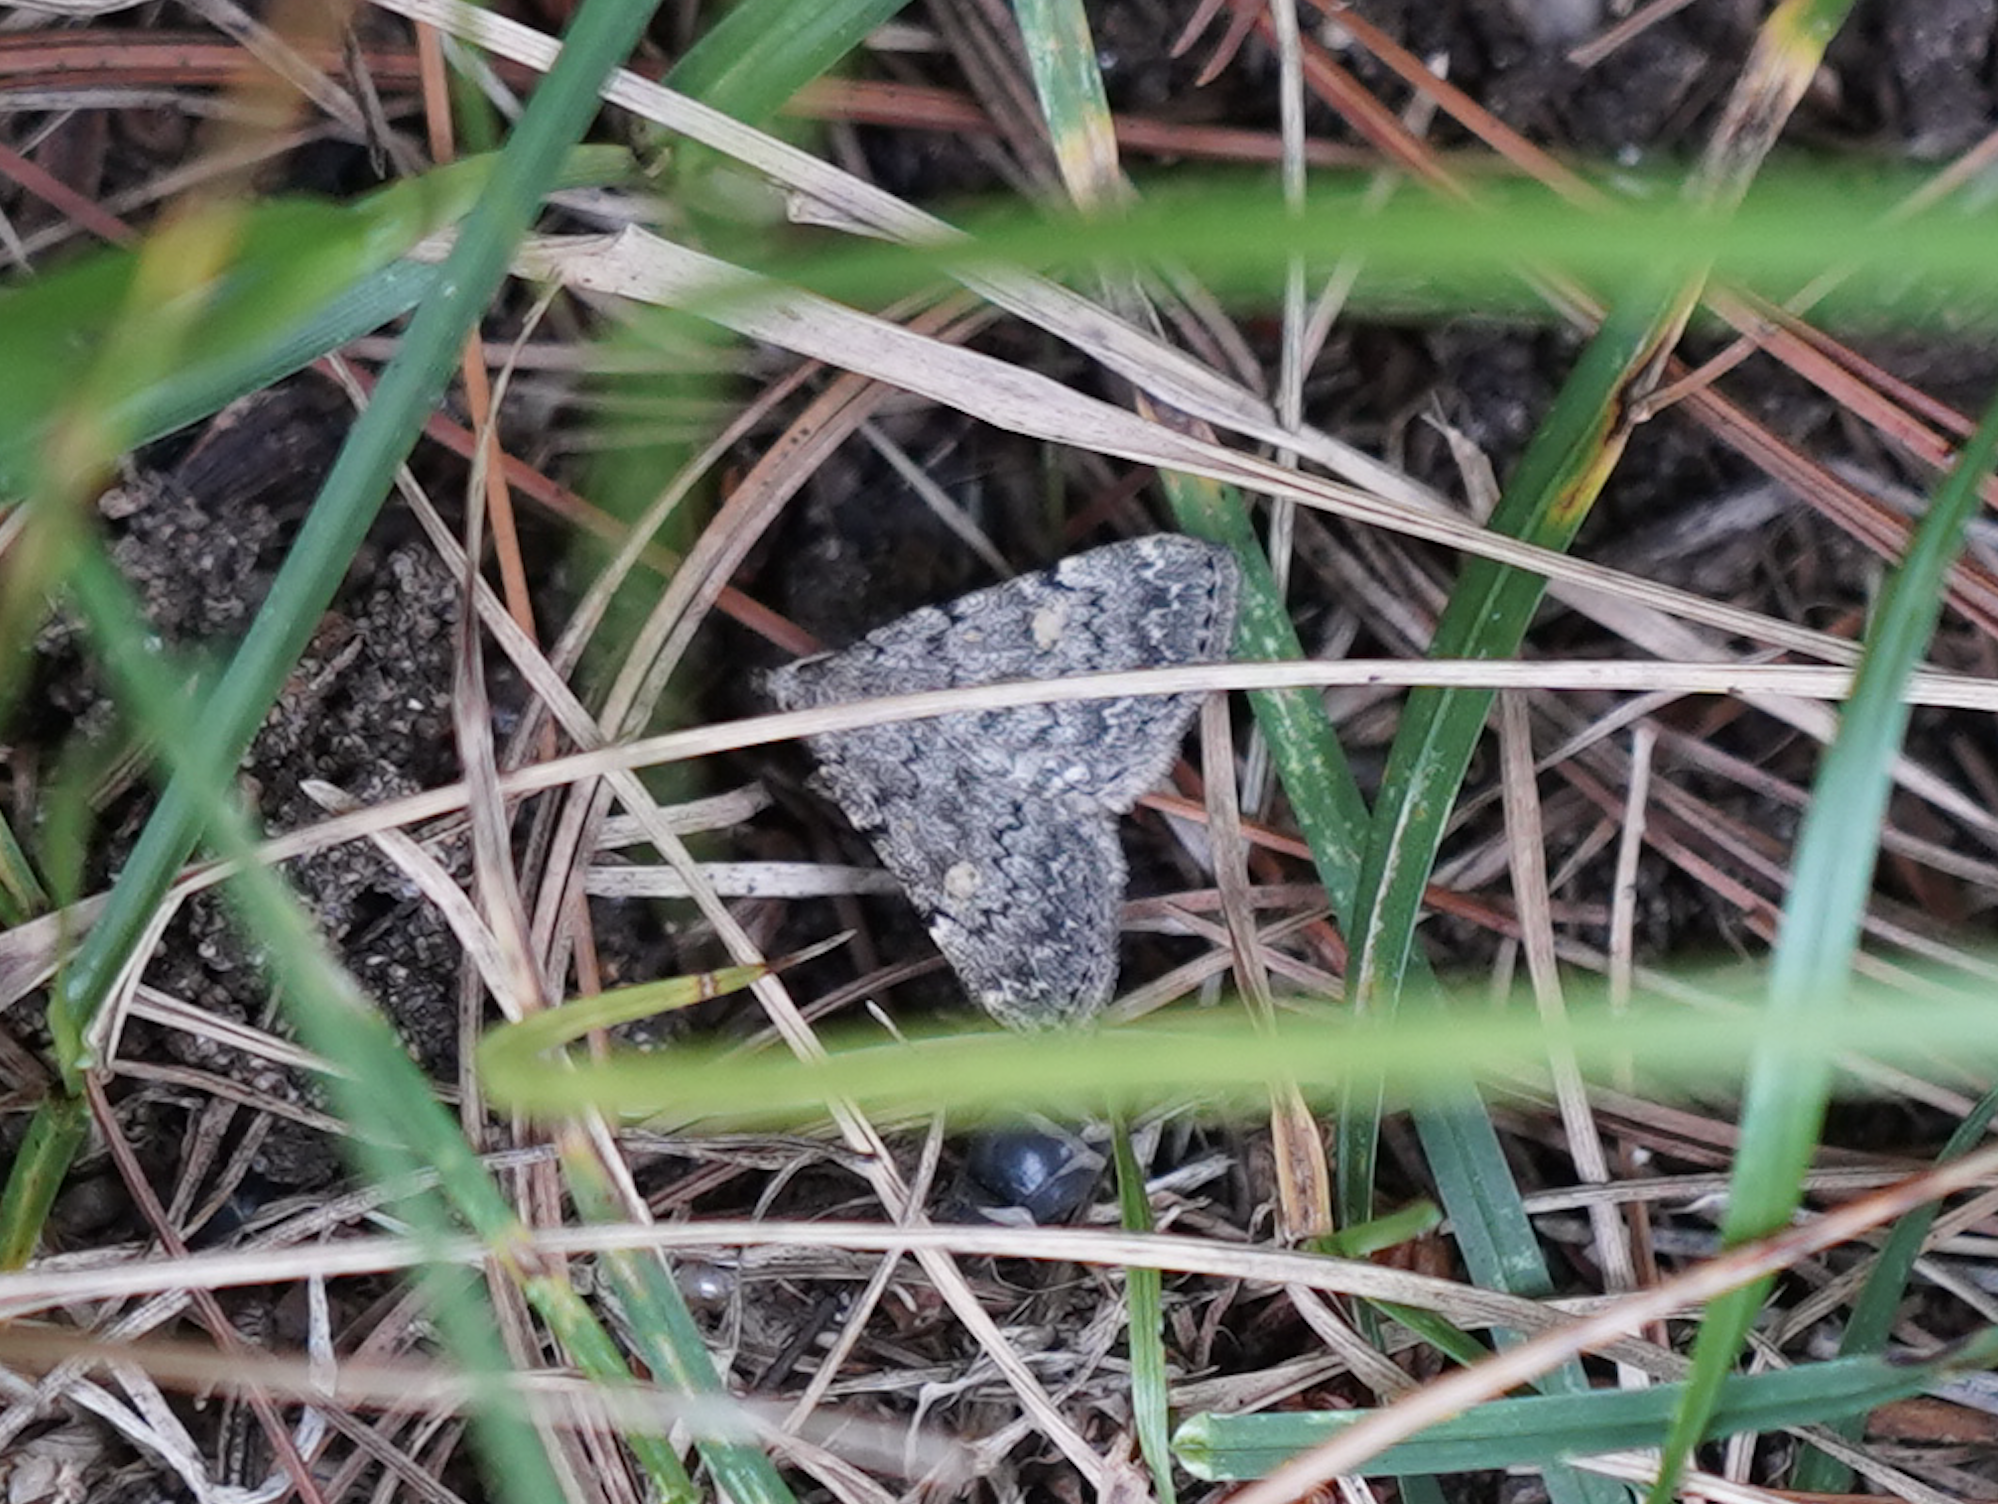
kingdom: Animalia
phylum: Arthropoda
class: Insecta
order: Lepidoptera
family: Erebidae
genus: Idia
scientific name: Idia aemula
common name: Common idia moth
